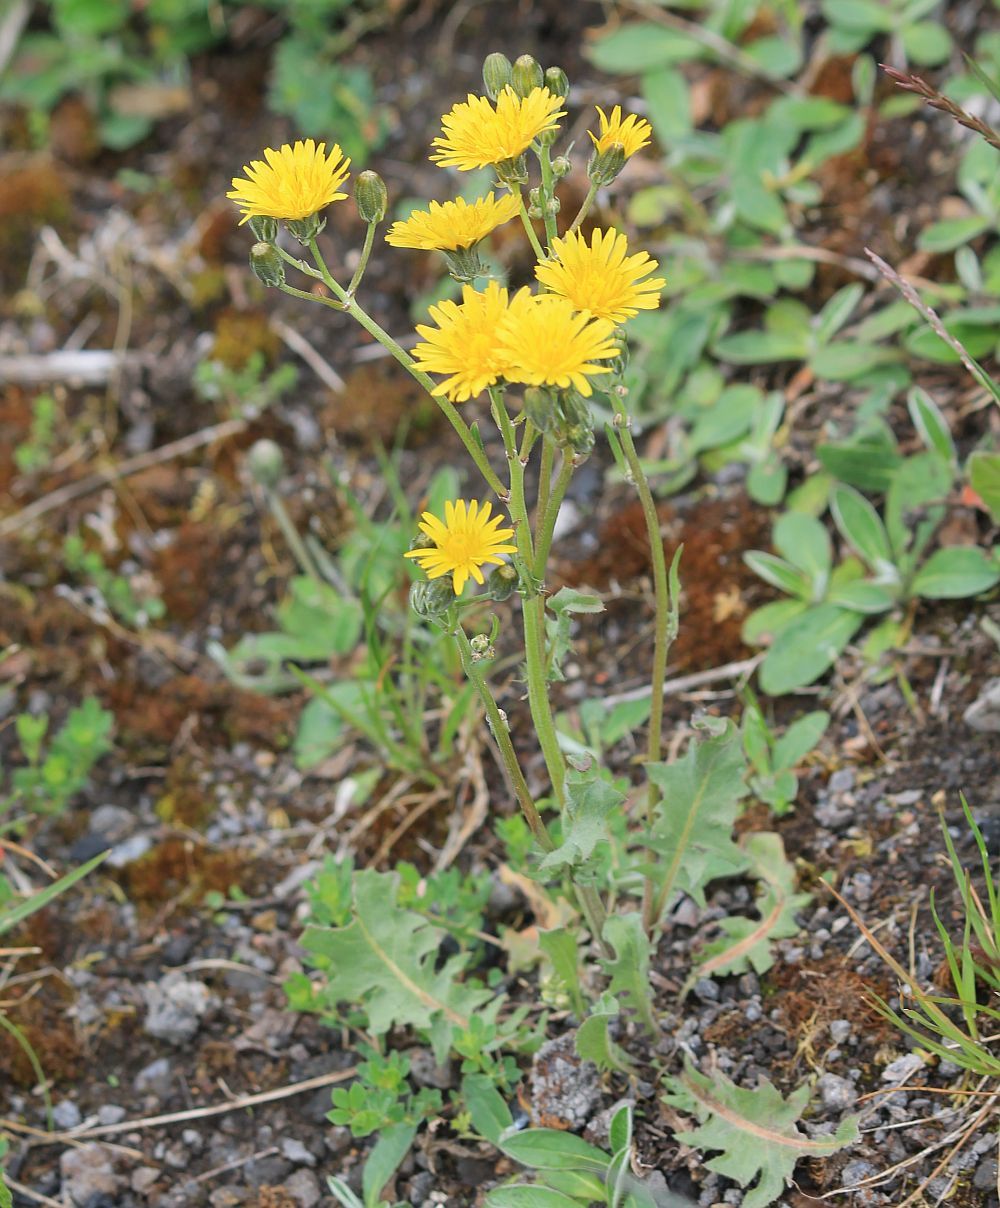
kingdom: Plantae
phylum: Tracheophyta
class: Magnoliopsida
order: Asterales
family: Asteraceae
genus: Crepis
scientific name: Crepis vesicaria
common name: Beaked hawksbeard
